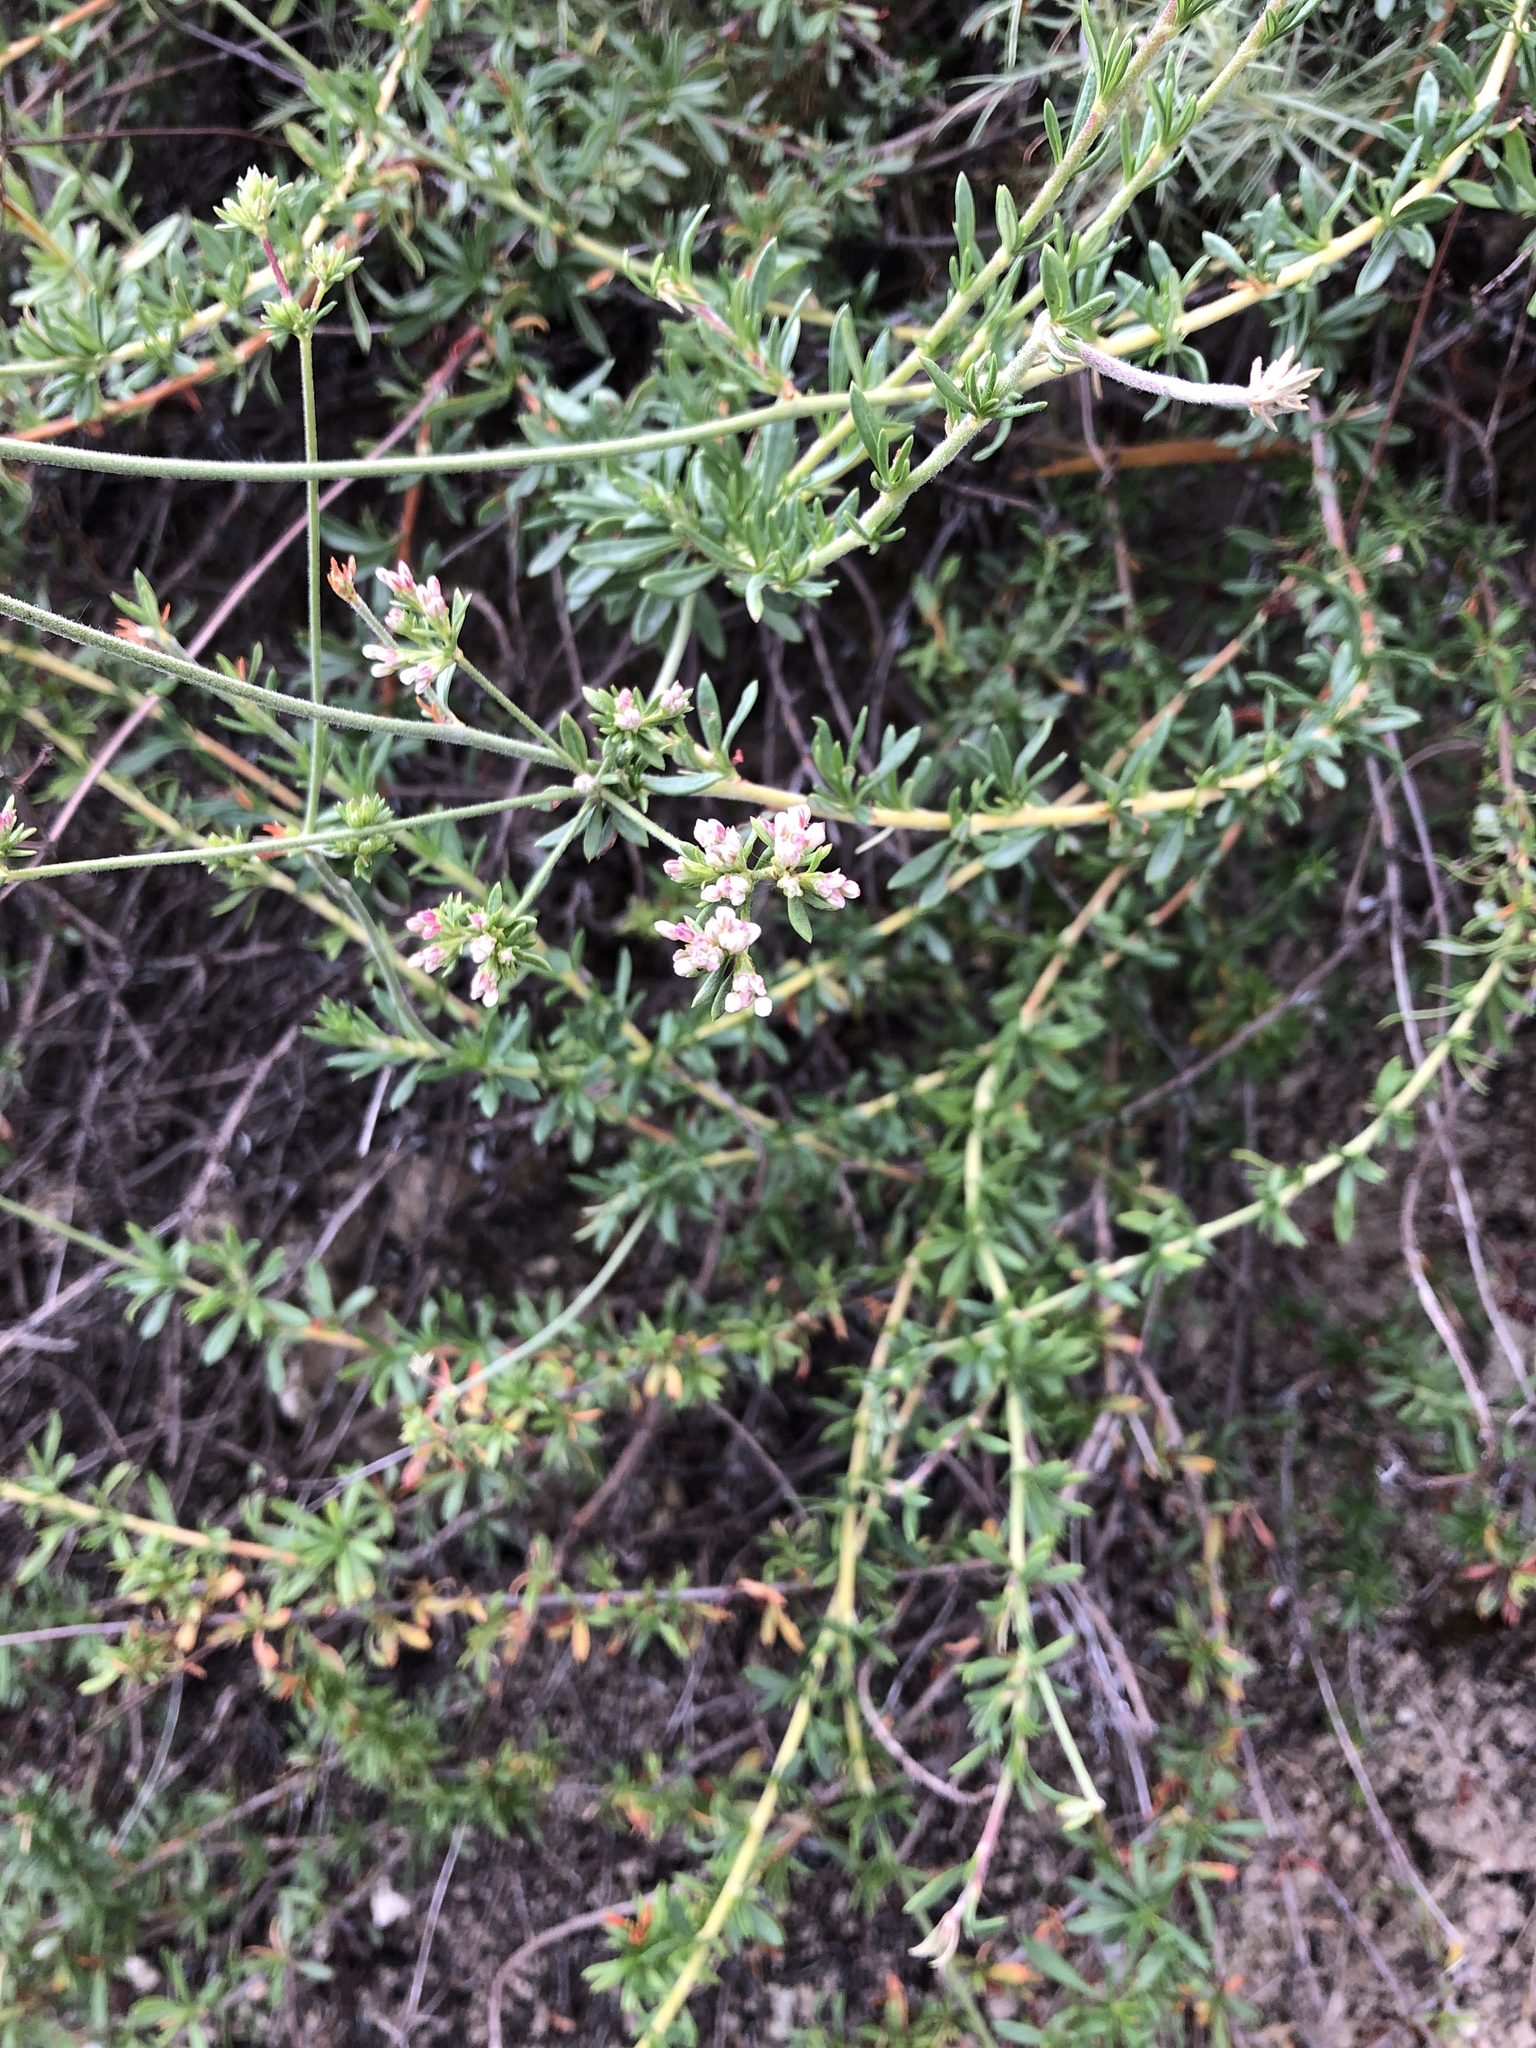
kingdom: Plantae
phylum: Tracheophyta
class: Magnoliopsida
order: Caryophyllales
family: Polygonaceae
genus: Eriogonum
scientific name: Eriogonum fasciculatum
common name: California wild buckwheat
